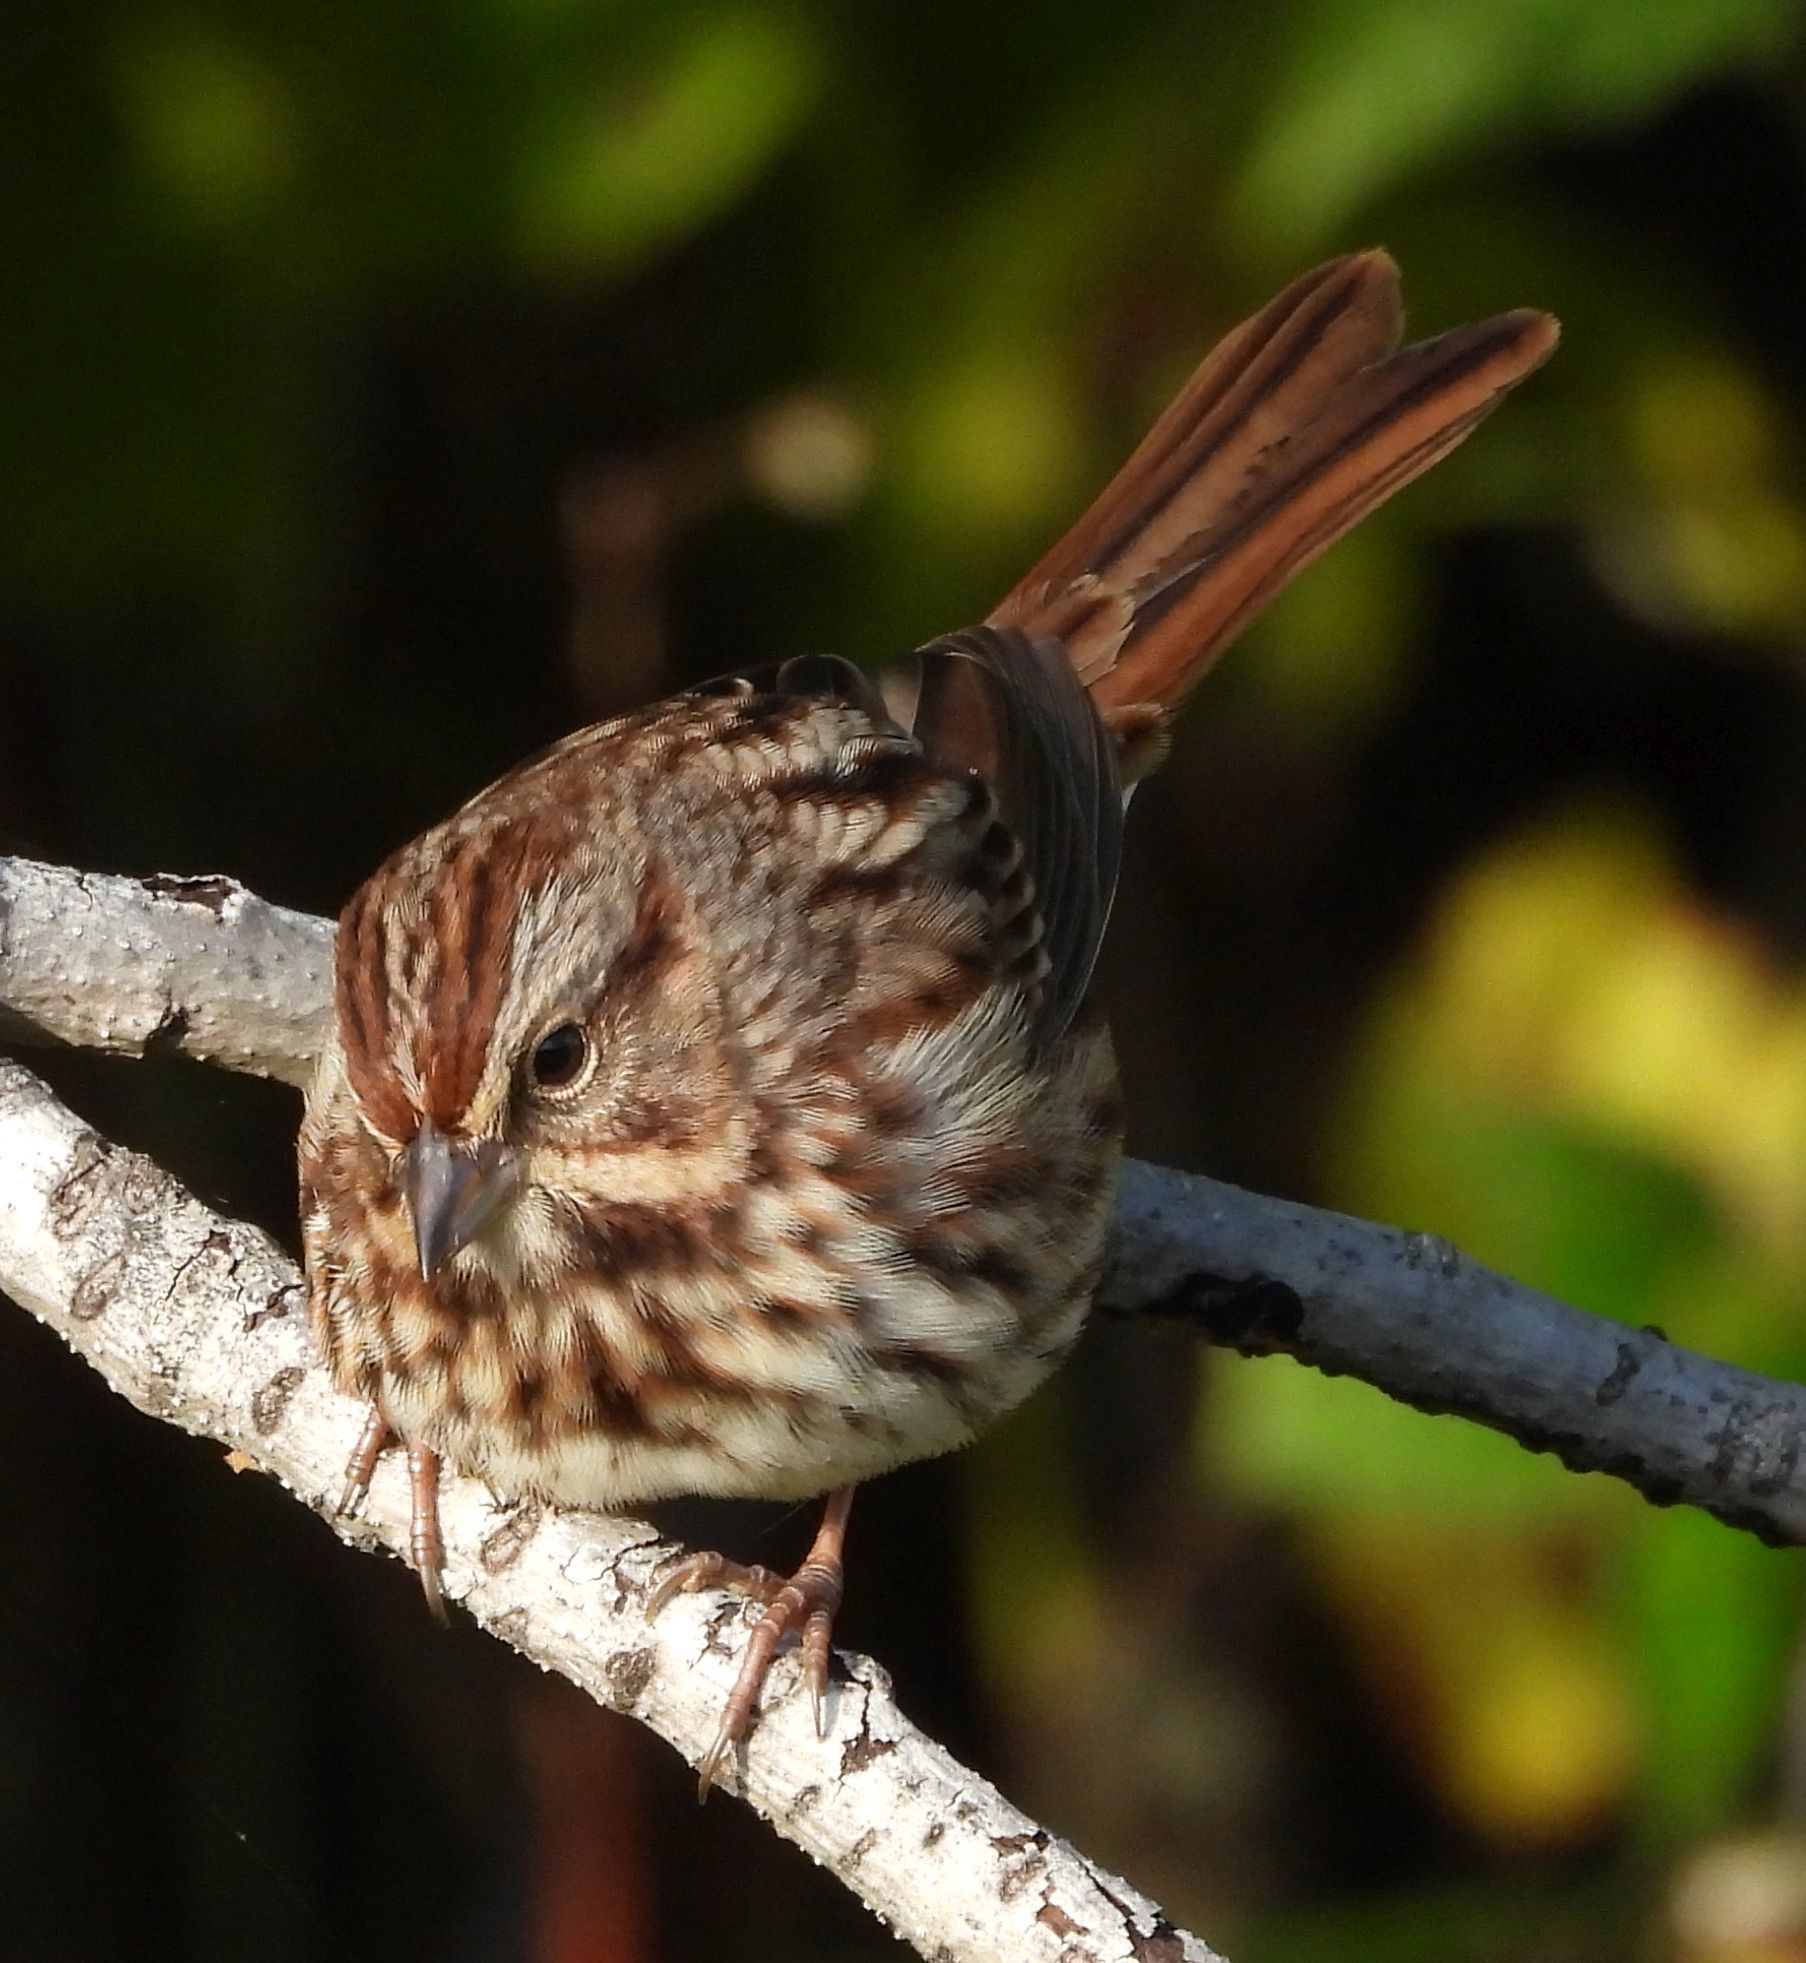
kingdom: Animalia
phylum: Chordata
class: Aves
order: Passeriformes
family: Passerellidae
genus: Melospiza
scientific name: Melospiza melodia
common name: Song sparrow
